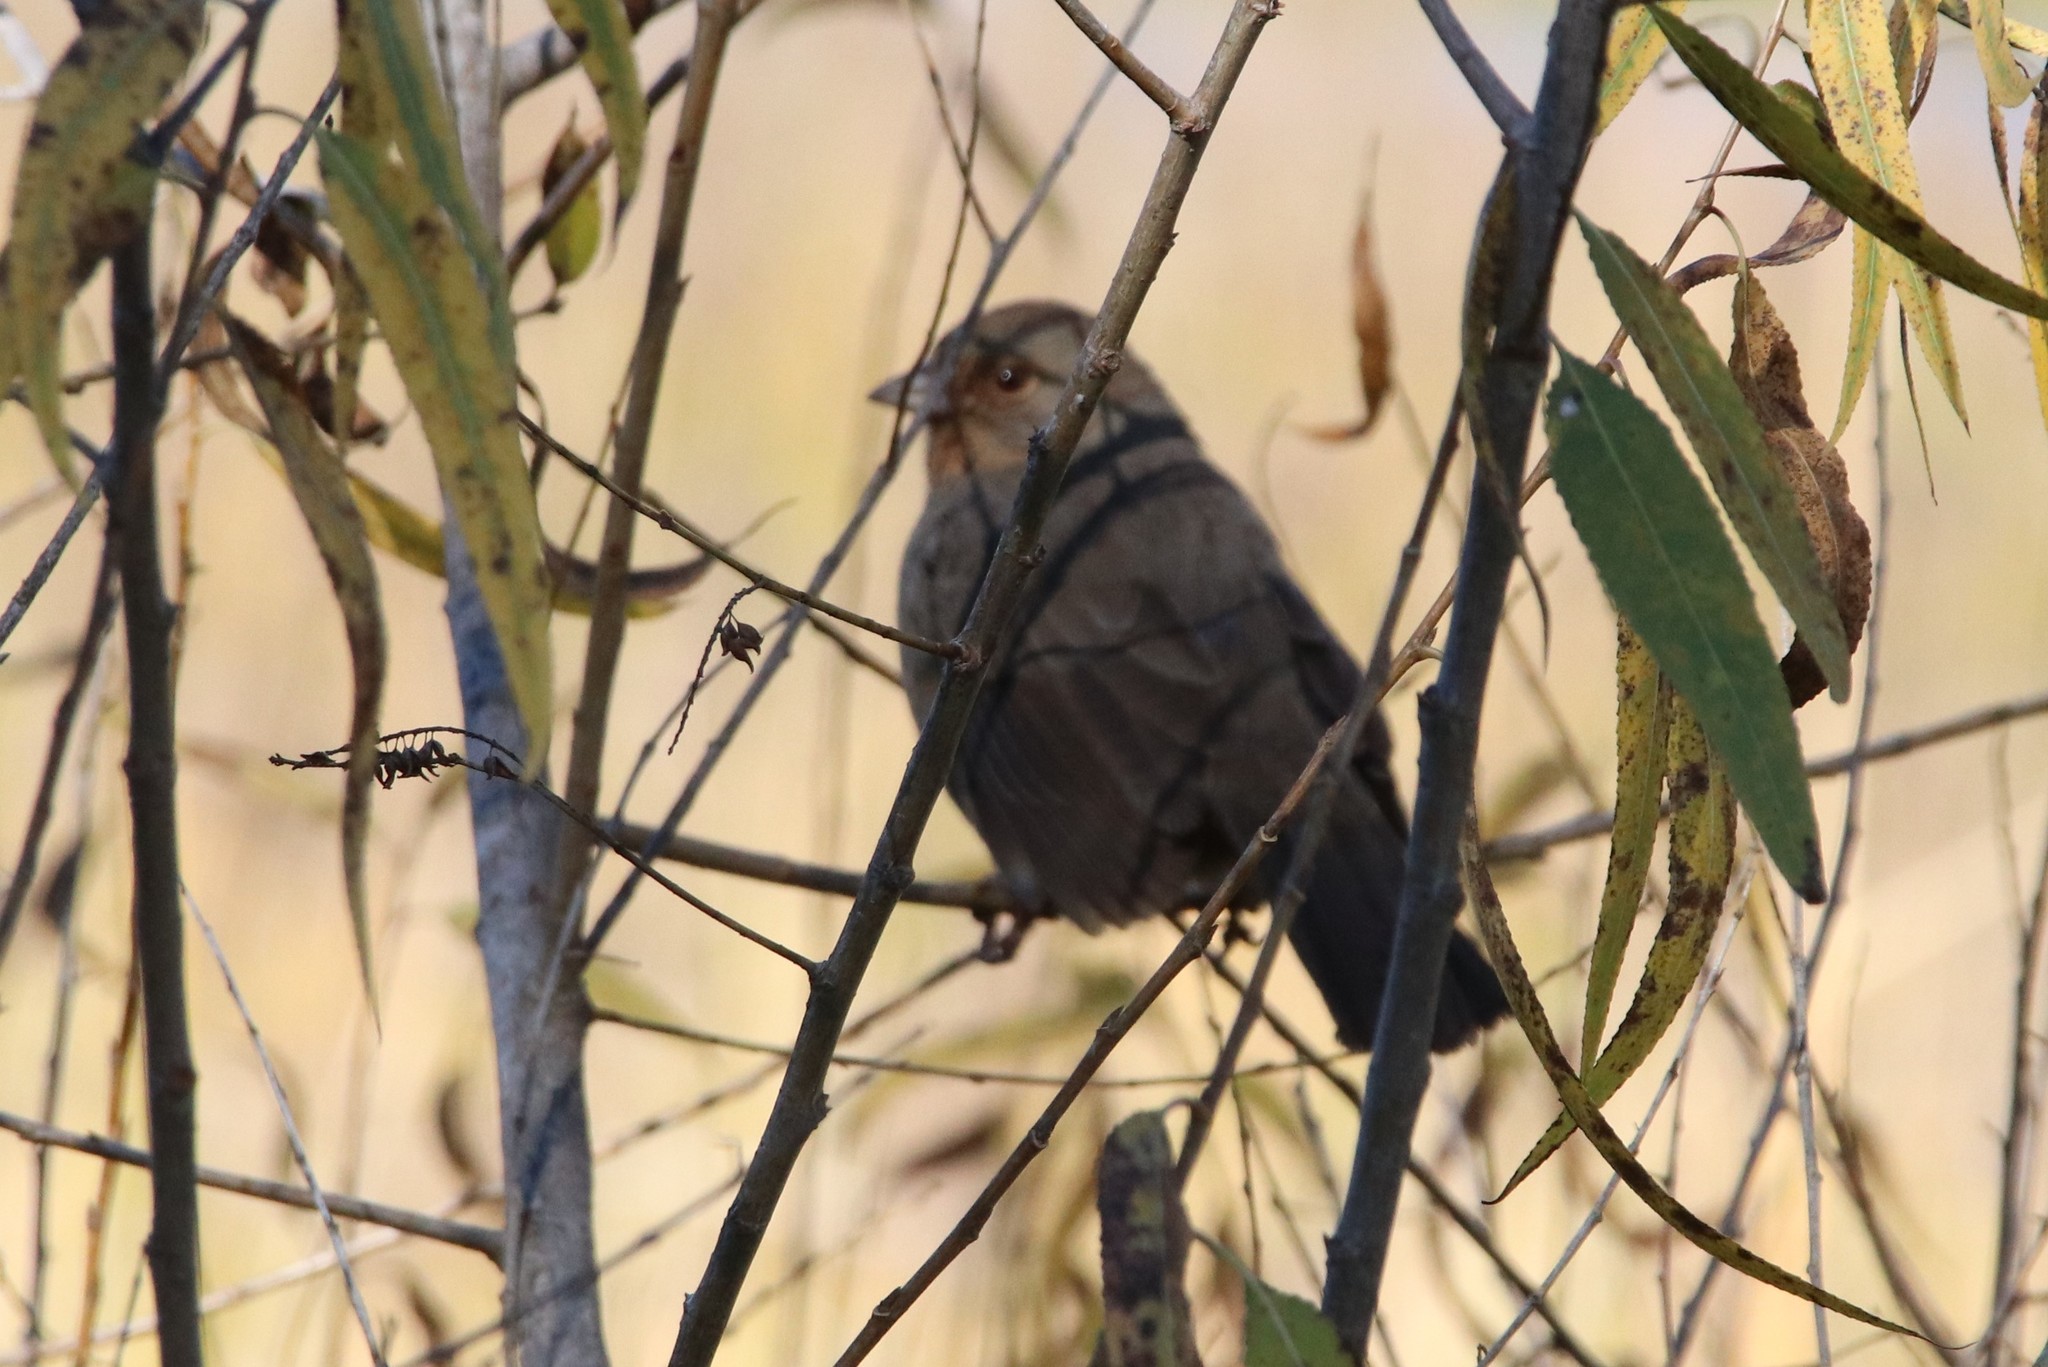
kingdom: Animalia
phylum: Chordata
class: Aves
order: Passeriformes
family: Passerellidae
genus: Melozone
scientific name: Melozone crissalis
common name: California towhee
